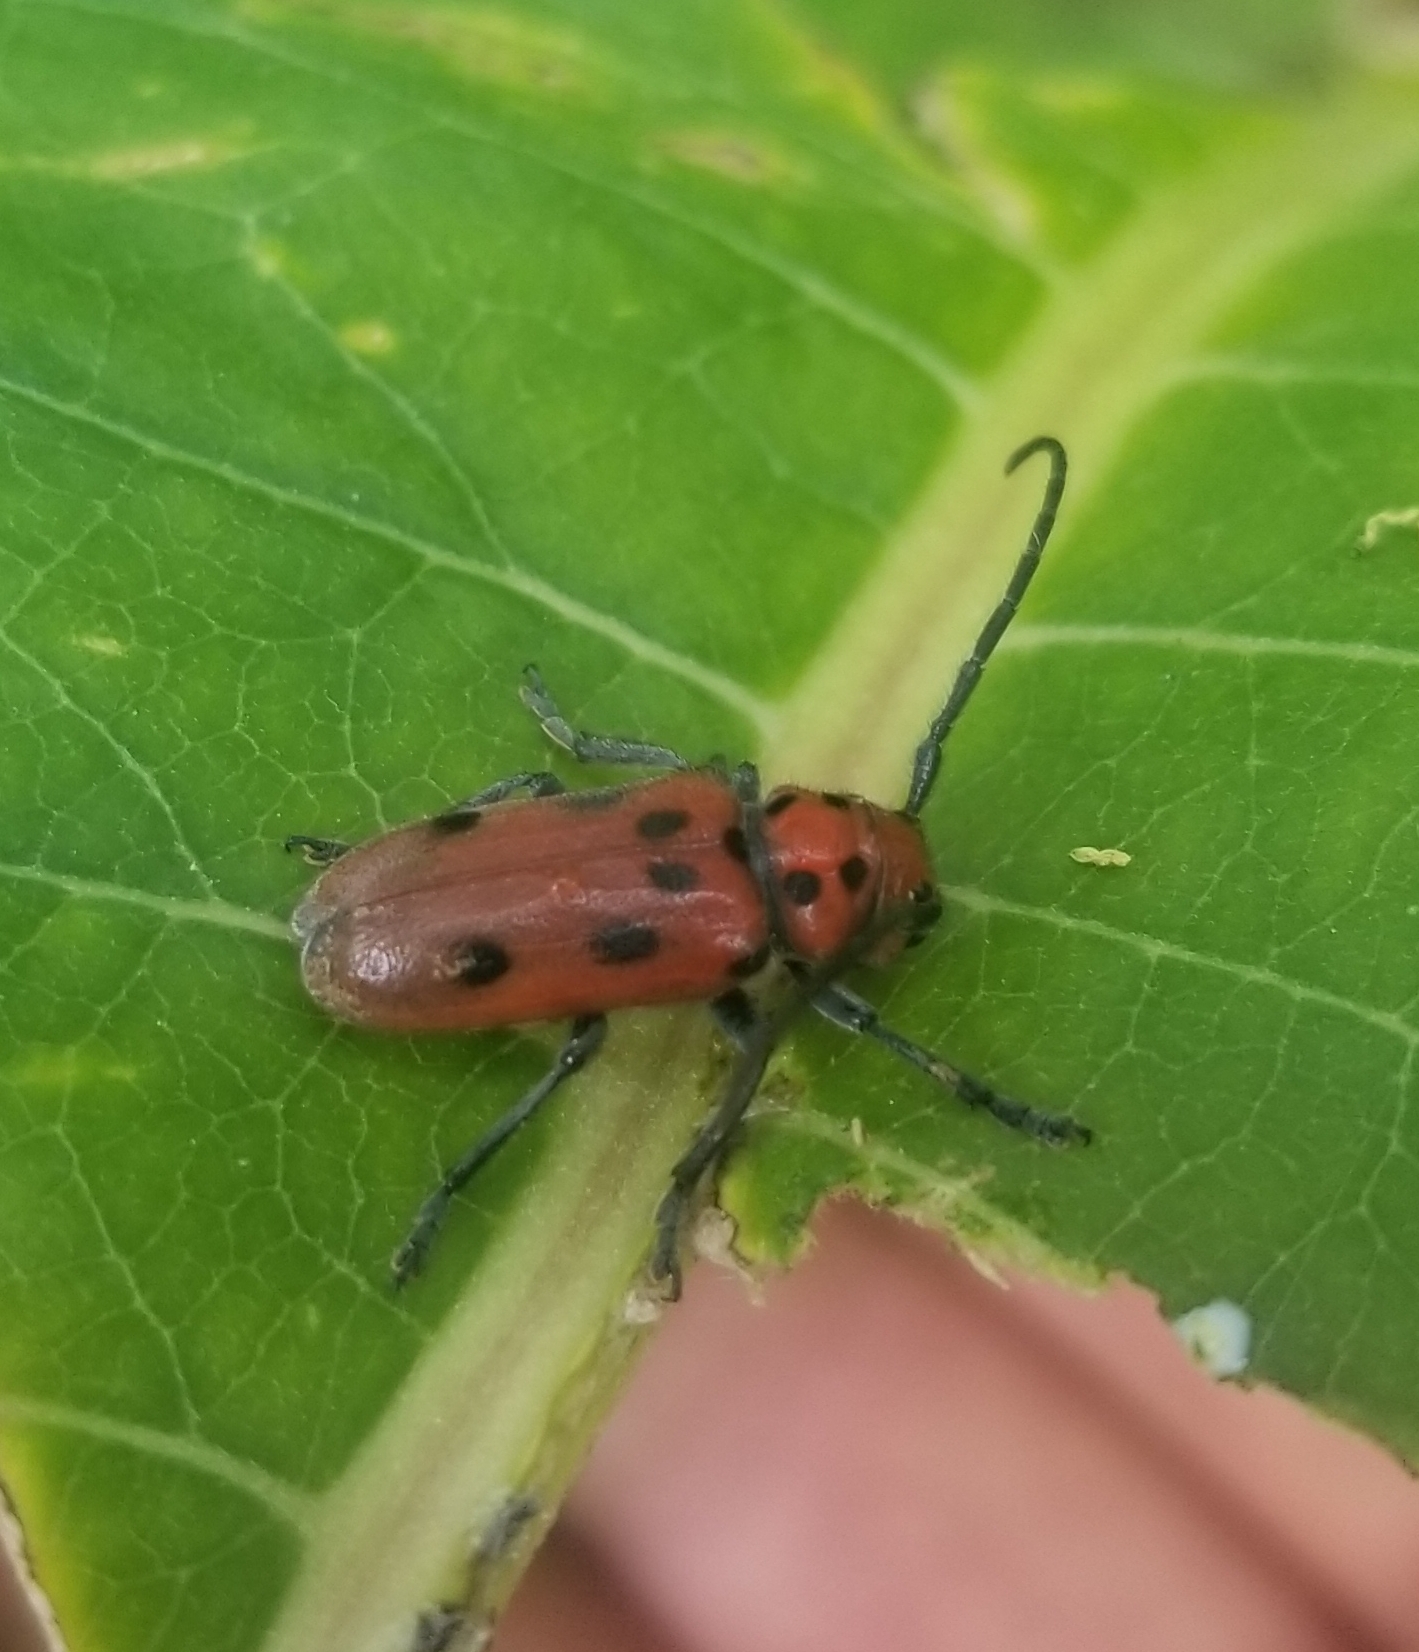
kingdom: Animalia
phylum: Arthropoda
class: Insecta
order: Coleoptera
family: Cerambycidae
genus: Tetraopes
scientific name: Tetraopes tetrophthalmus
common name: Red milkweed beetle
